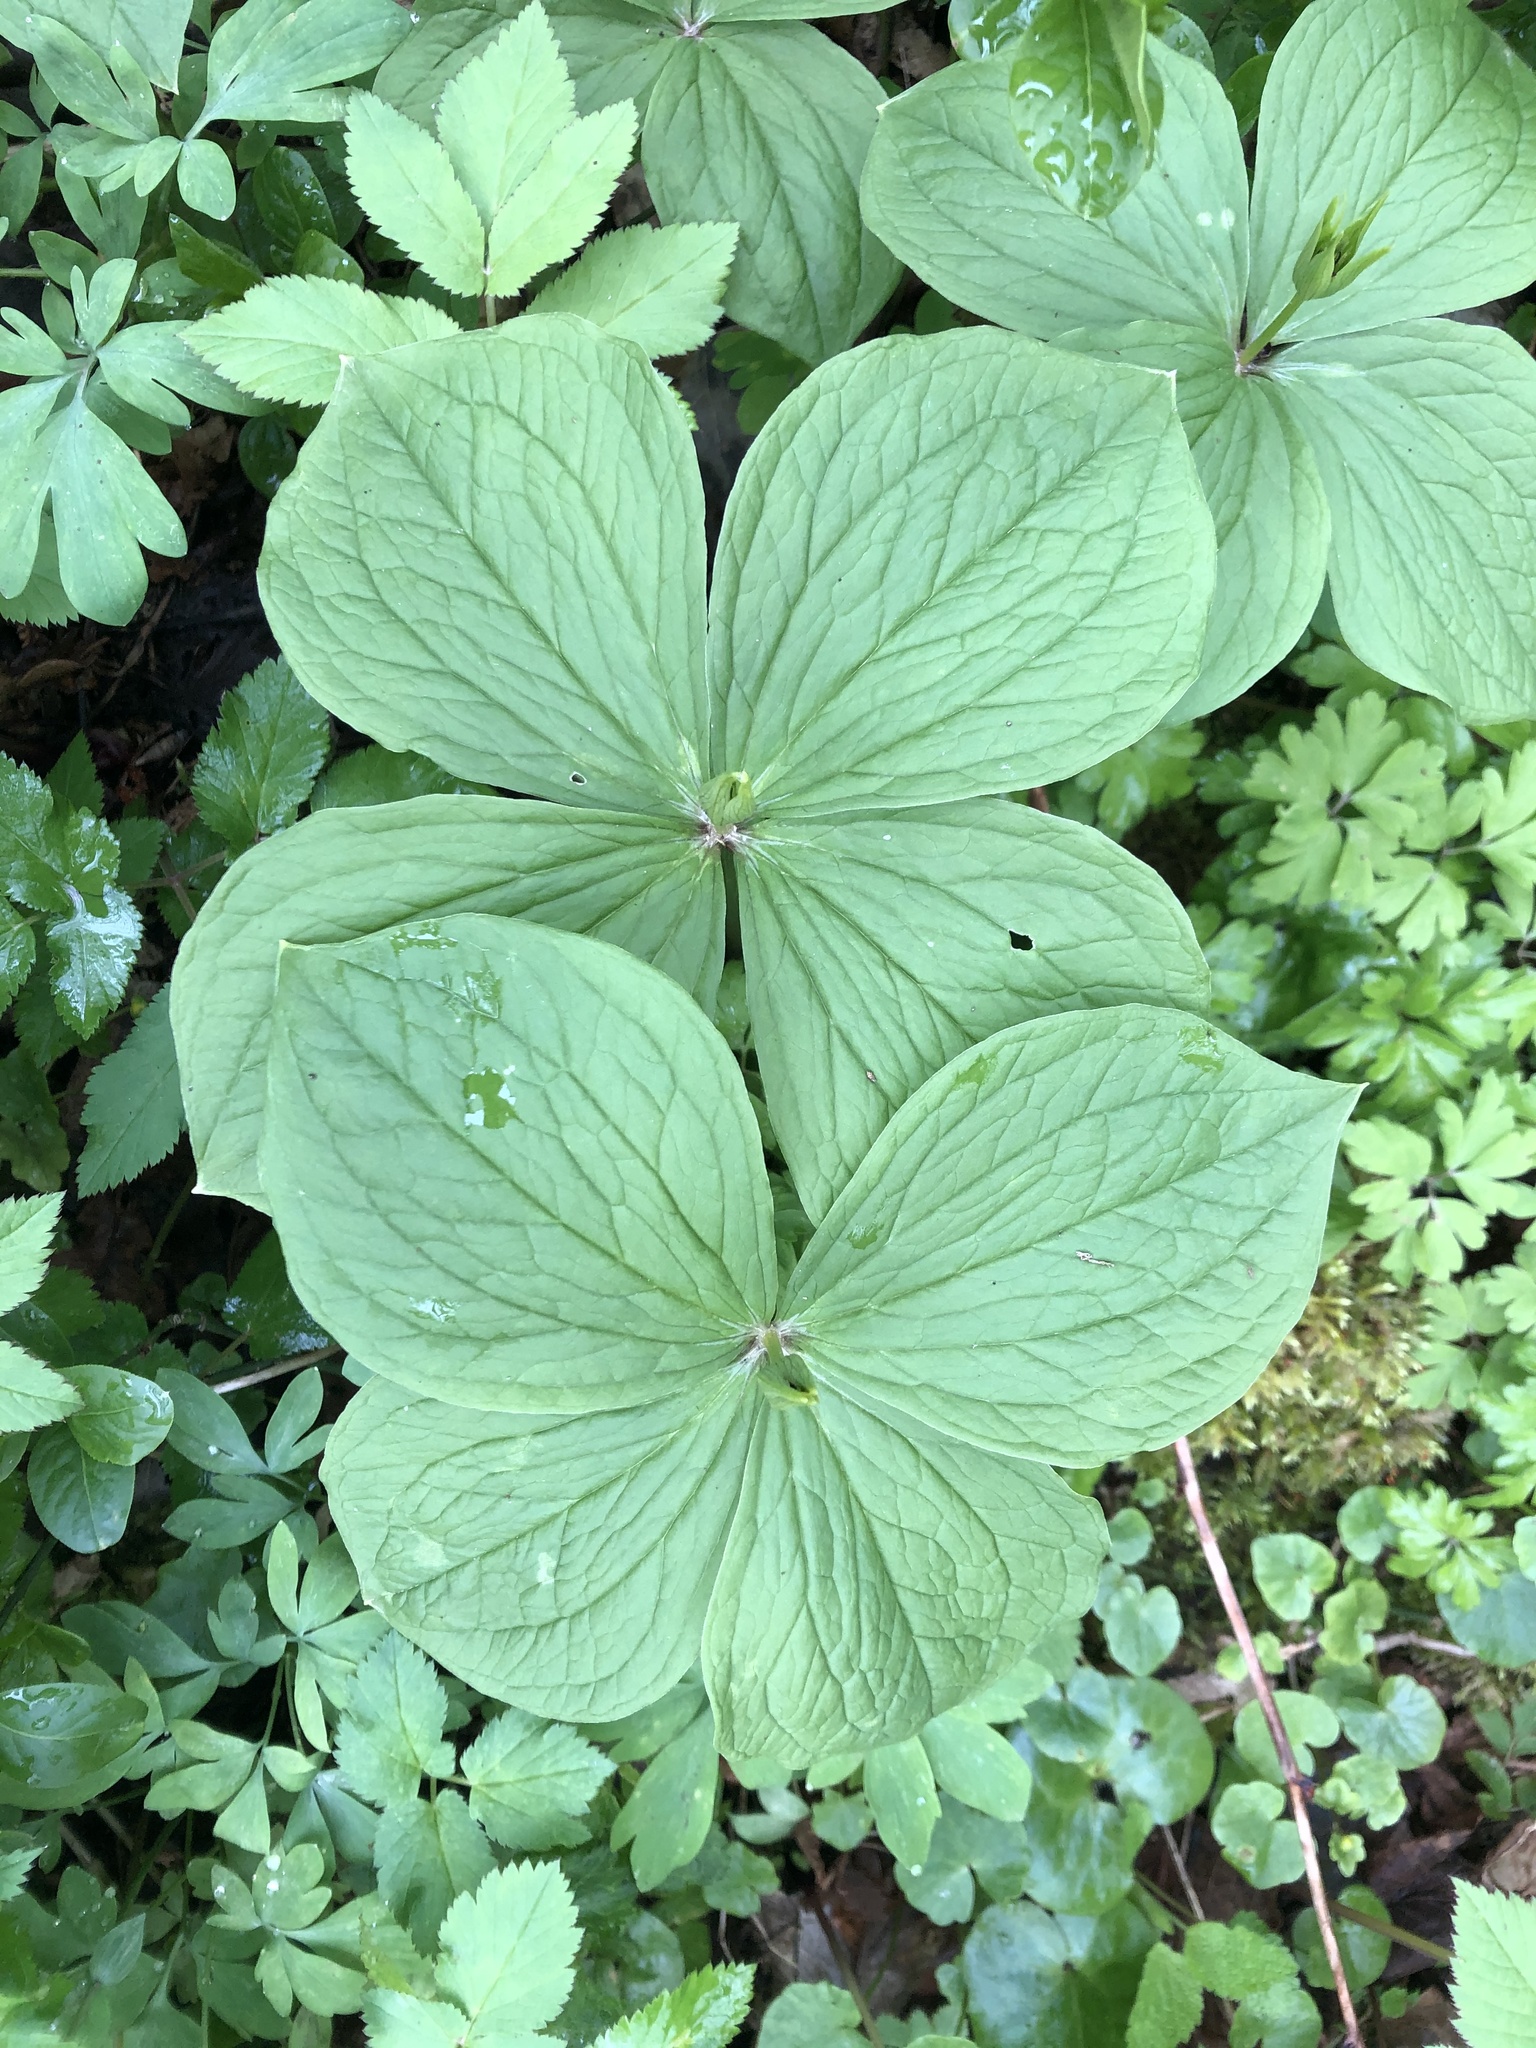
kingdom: Plantae
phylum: Tracheophyta
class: Liliopsida
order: Liliales
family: Melanthiaceae
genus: Paris
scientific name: Paris quadrifolia
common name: Herb-paris
